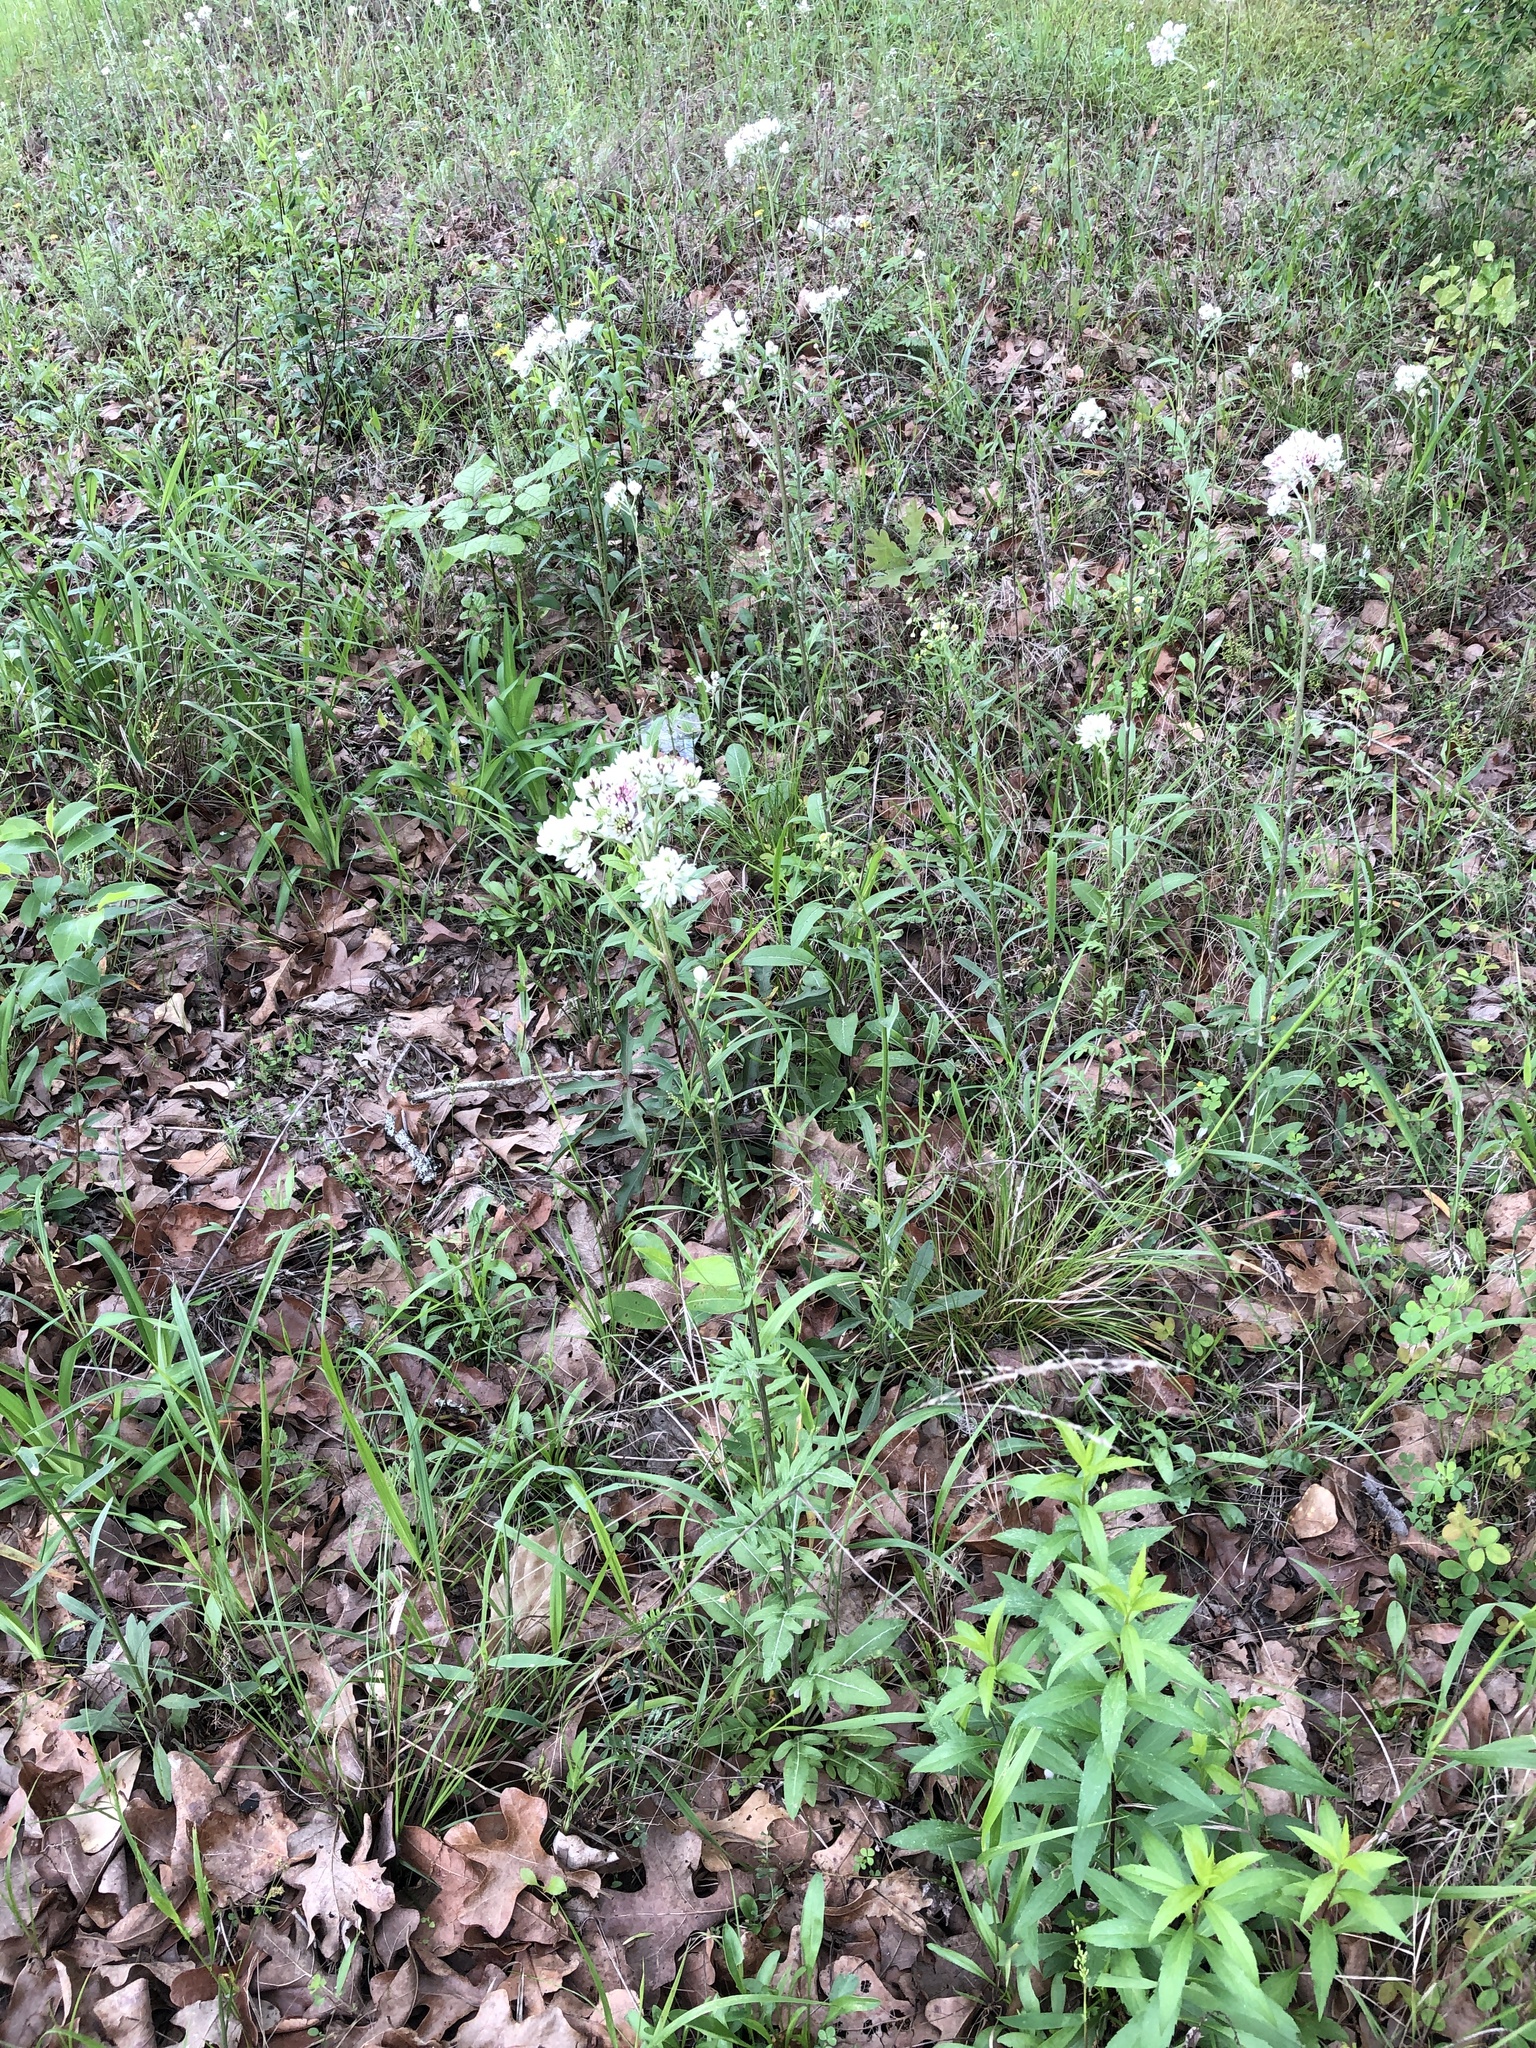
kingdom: Plantae
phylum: Tracheophyta
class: Magnoliopsida
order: Asterales
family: Asteraceae
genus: Hymenopappus
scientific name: Hymenopappus artemisiifolius
